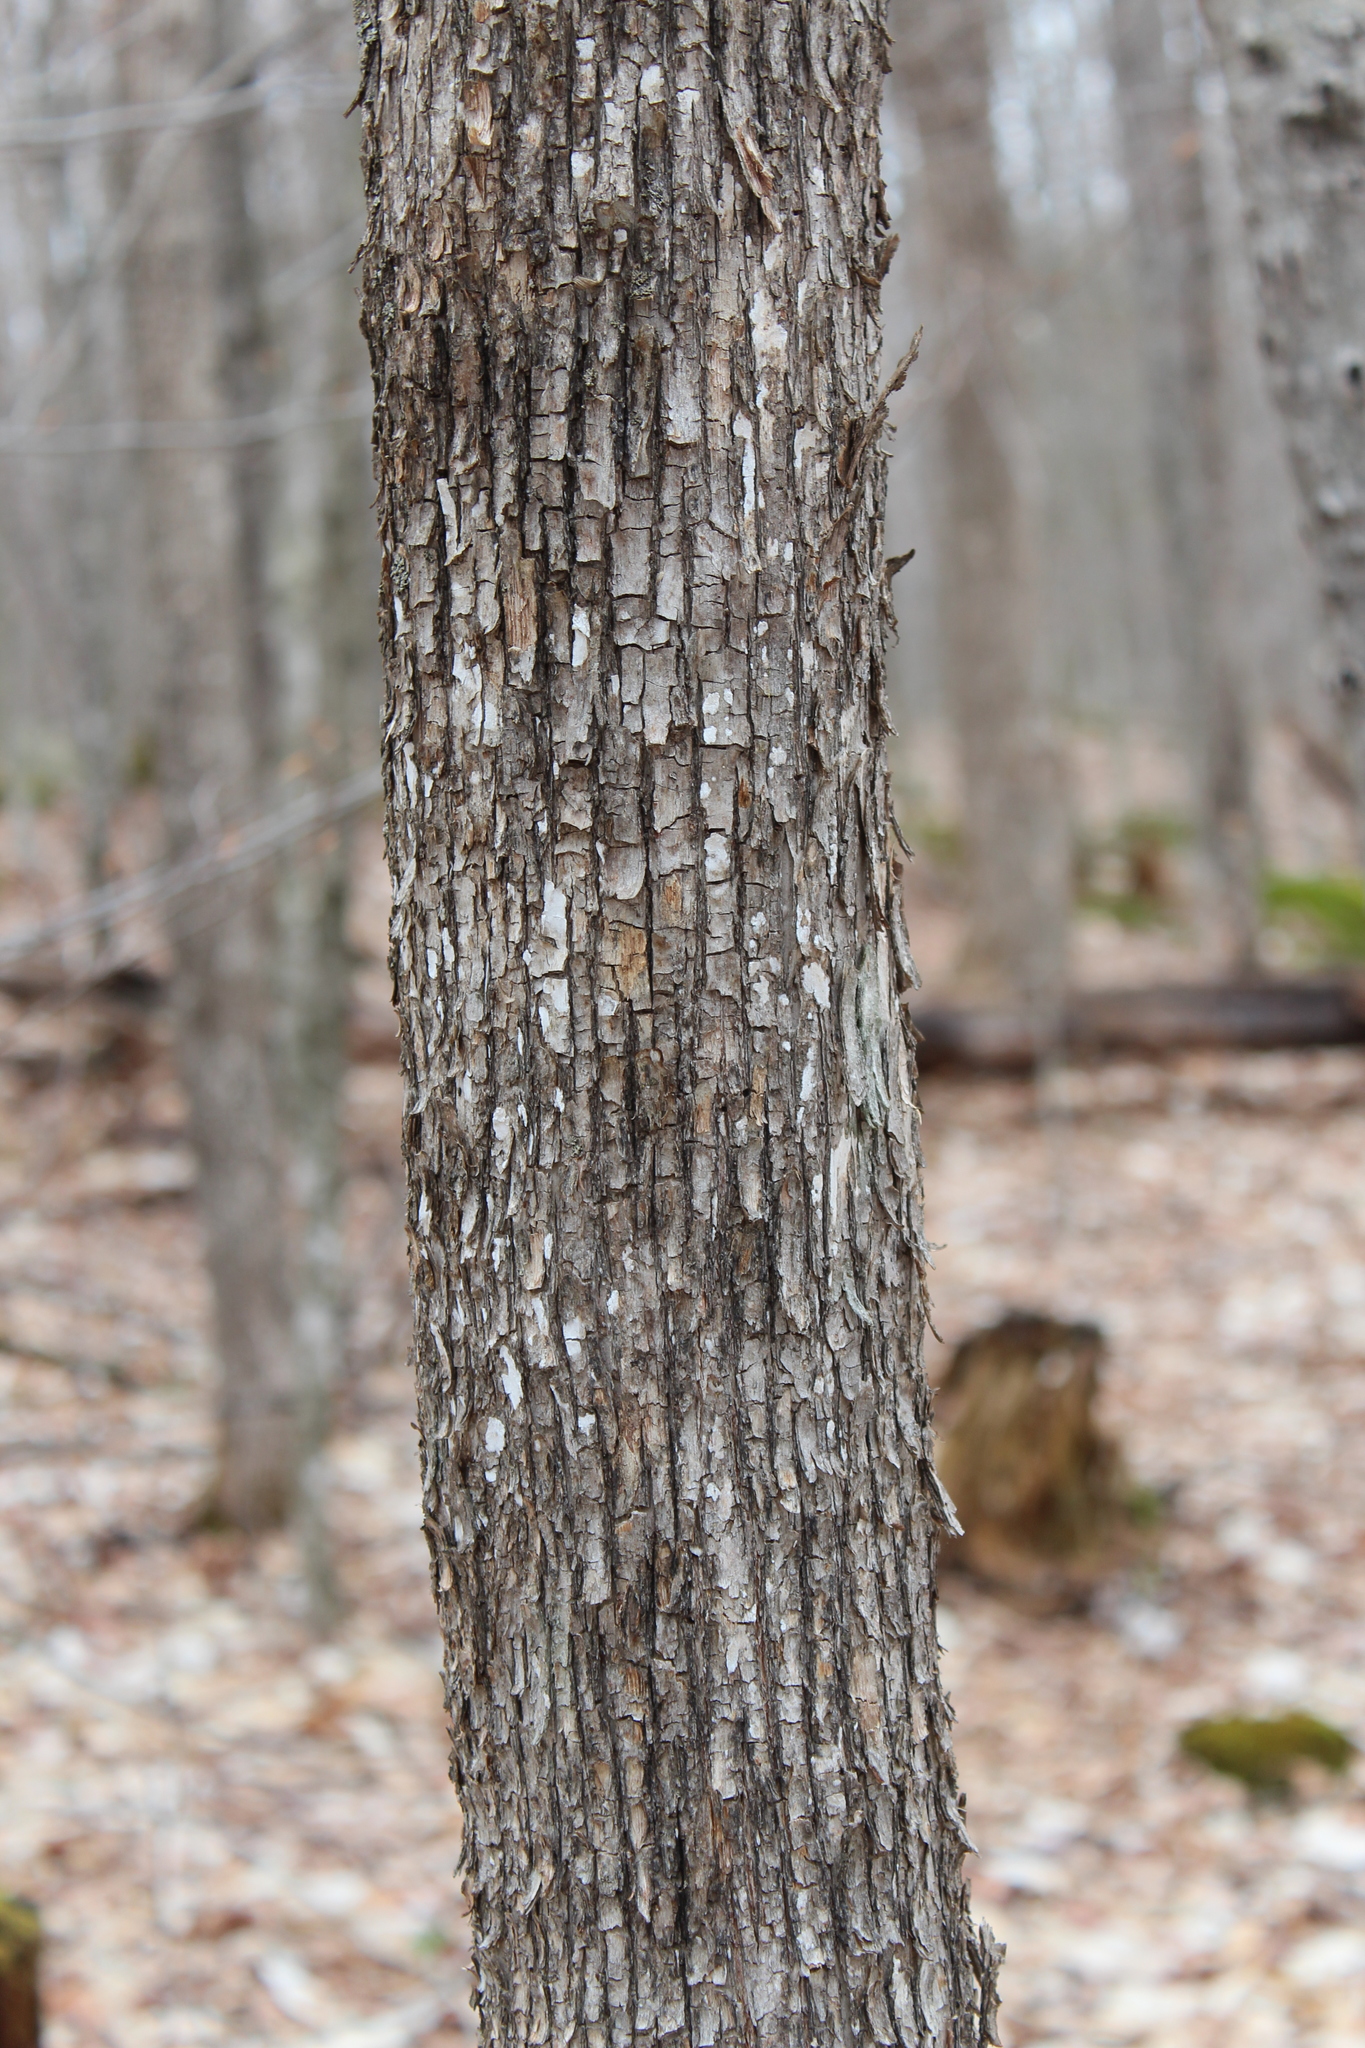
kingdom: Plantae
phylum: Tracheophyta
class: Magnoliopsida
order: Fagales
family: Betulaceae
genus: Ostrya
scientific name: Ostrya virginiana
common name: Ironwood
